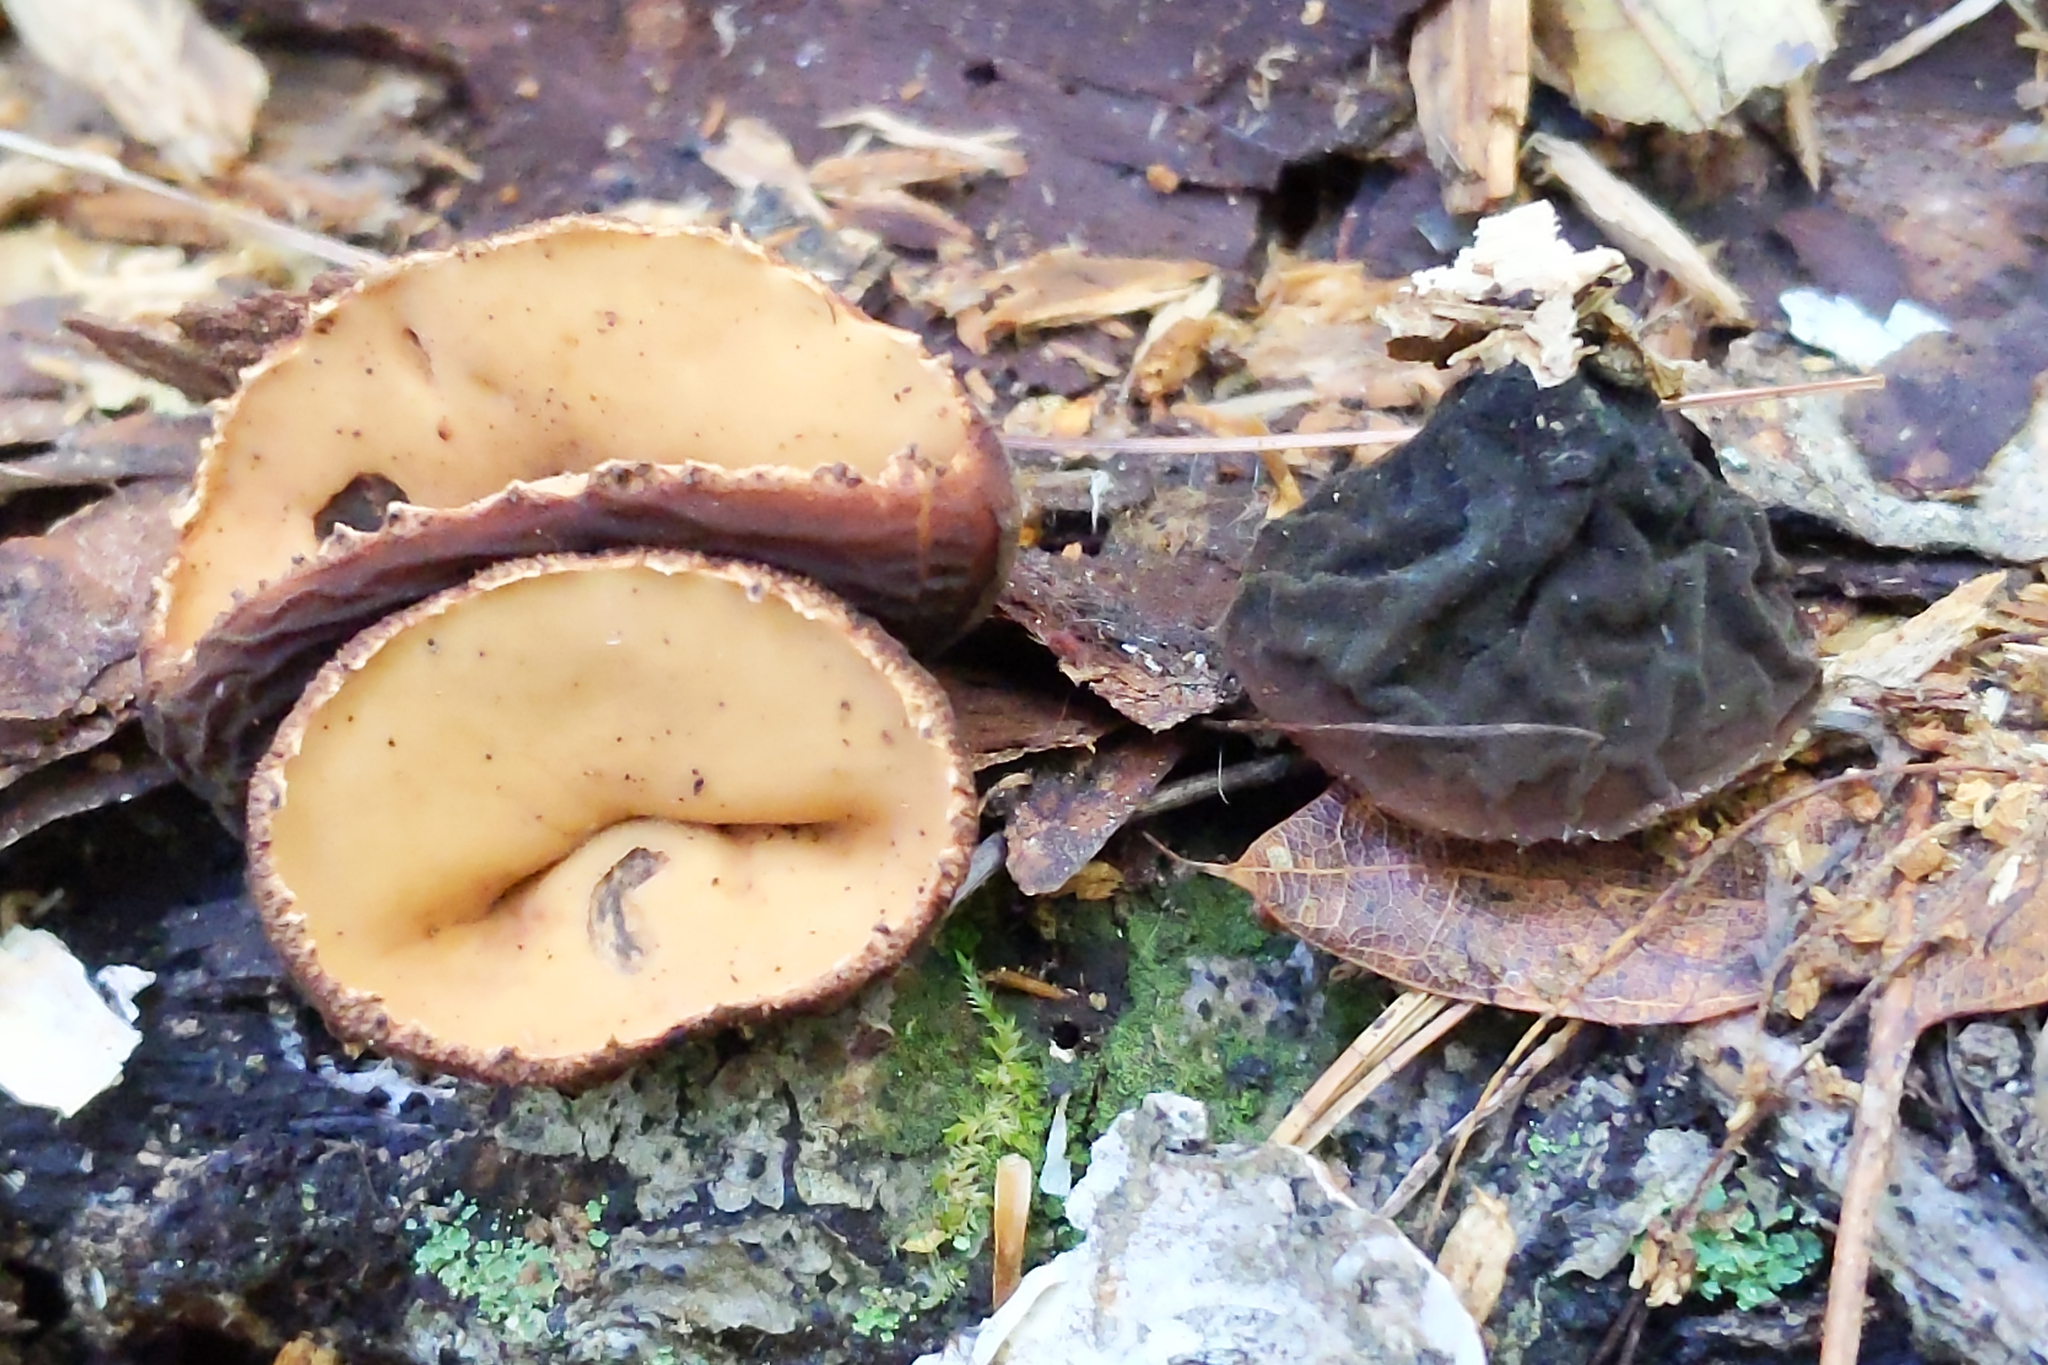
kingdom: Fungi
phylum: Ascomycota
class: Pezizomycetes
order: Pezizales
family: Sarcosomataceae
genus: Galiella
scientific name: Galiella rufa
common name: Hairy rubber cup
